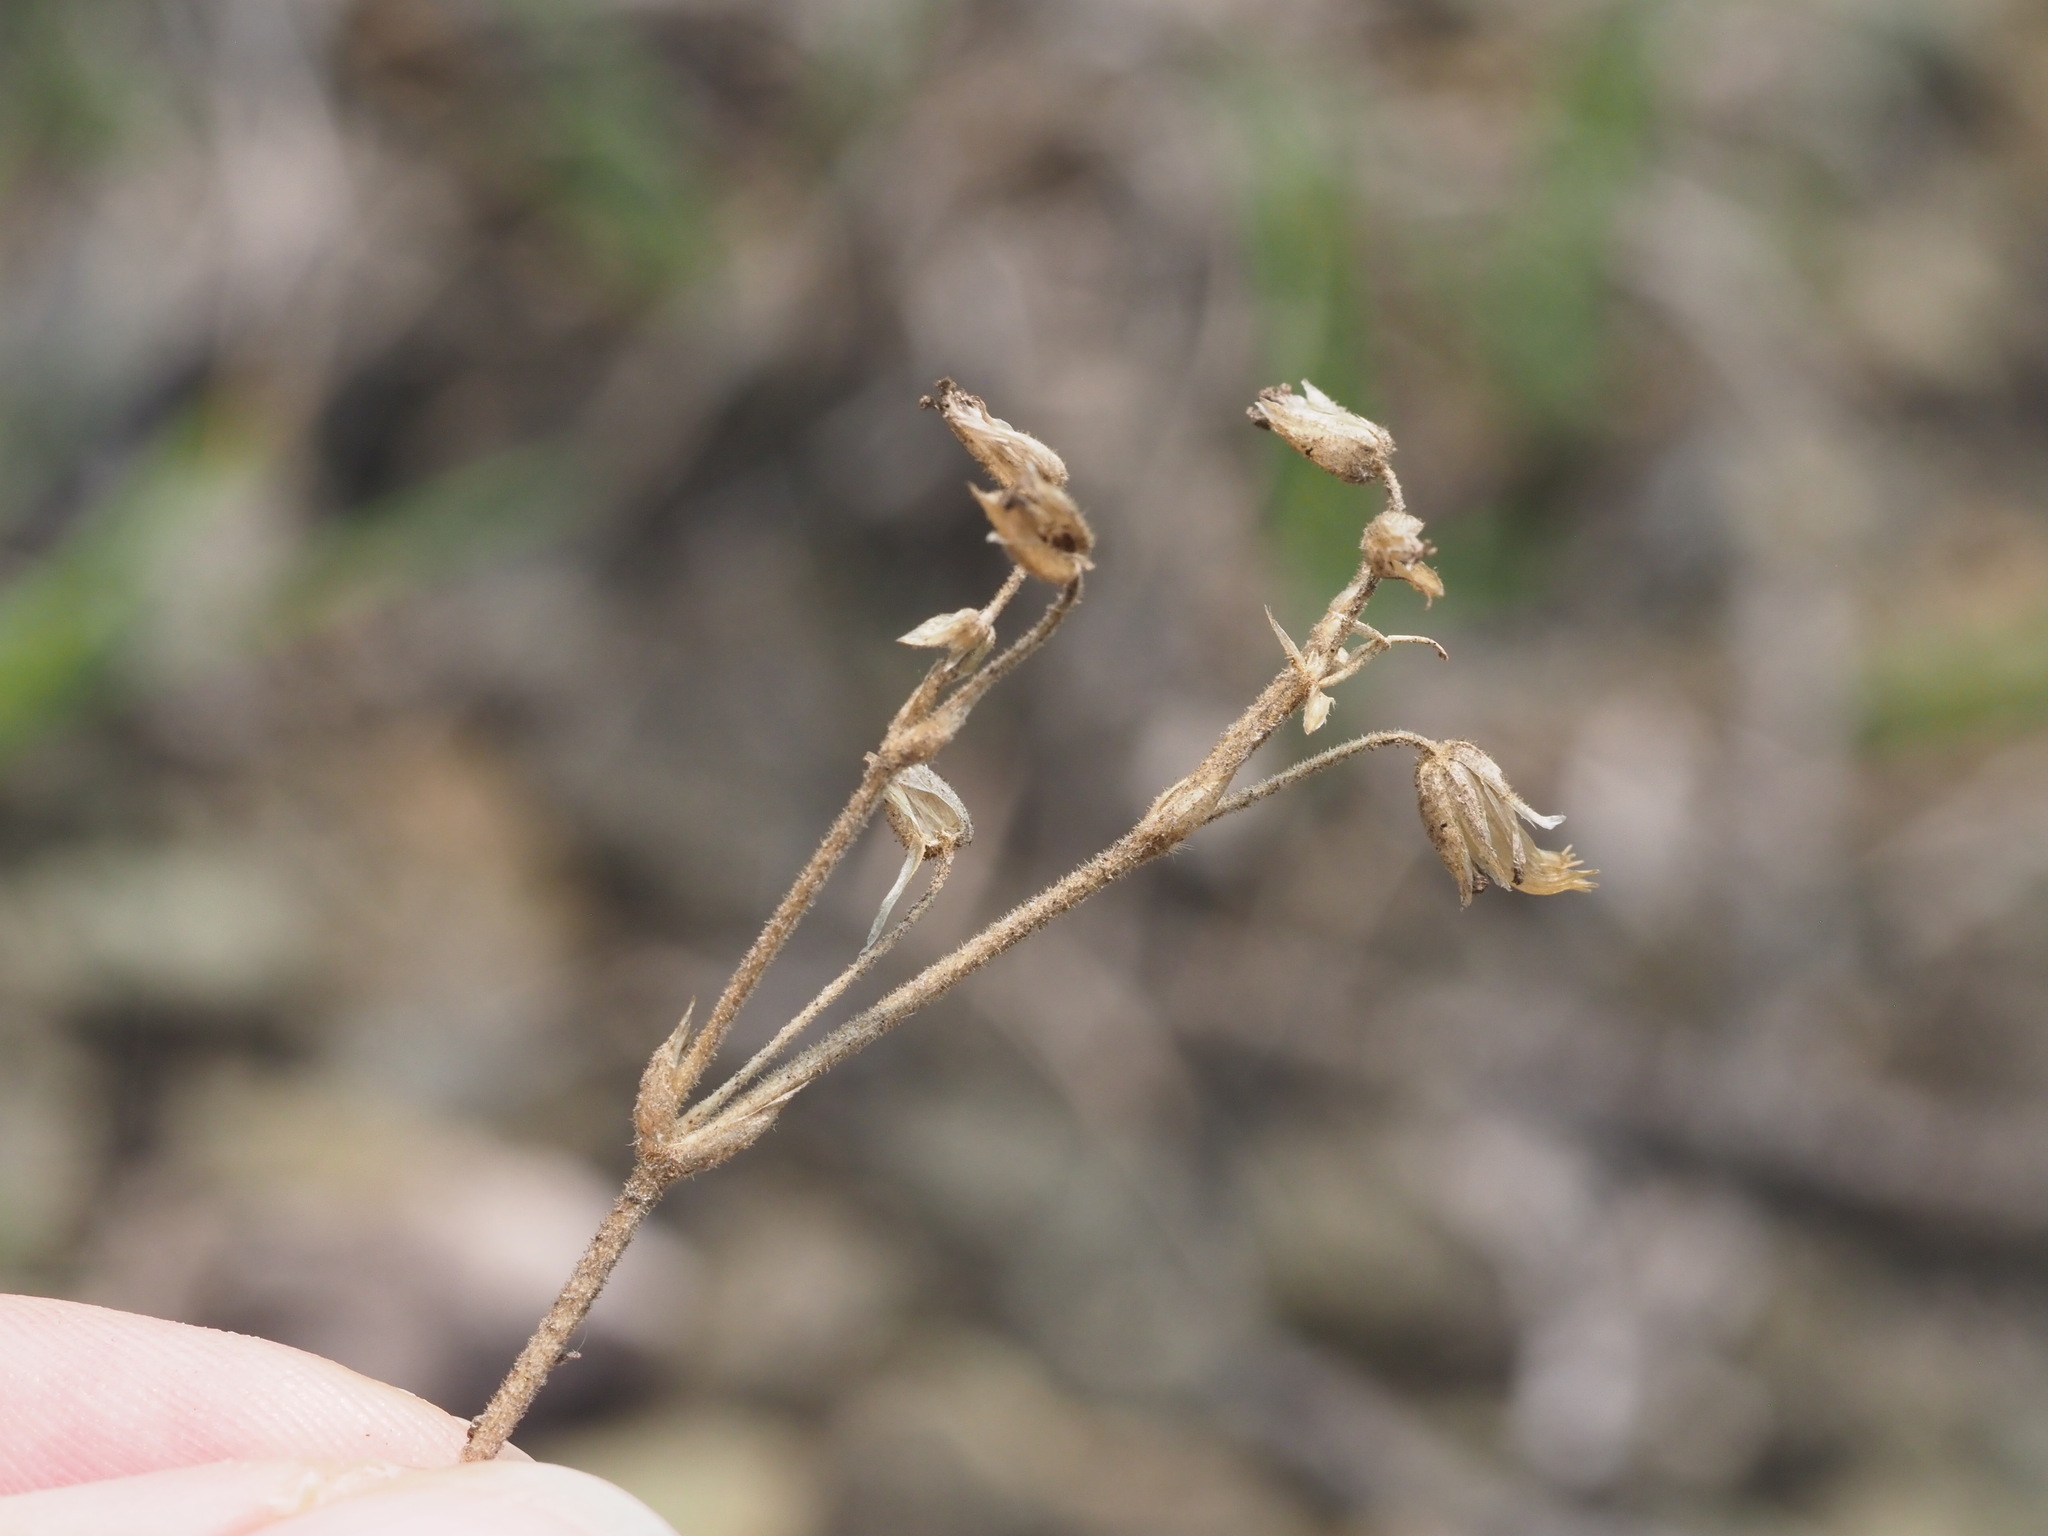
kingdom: Plantae
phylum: Tracheophyta
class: Magnoliopsida
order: Caryophyllales
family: Caryophyllaceae
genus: Cerastium
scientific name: Cerastium velutinum
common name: Barren chickweed
